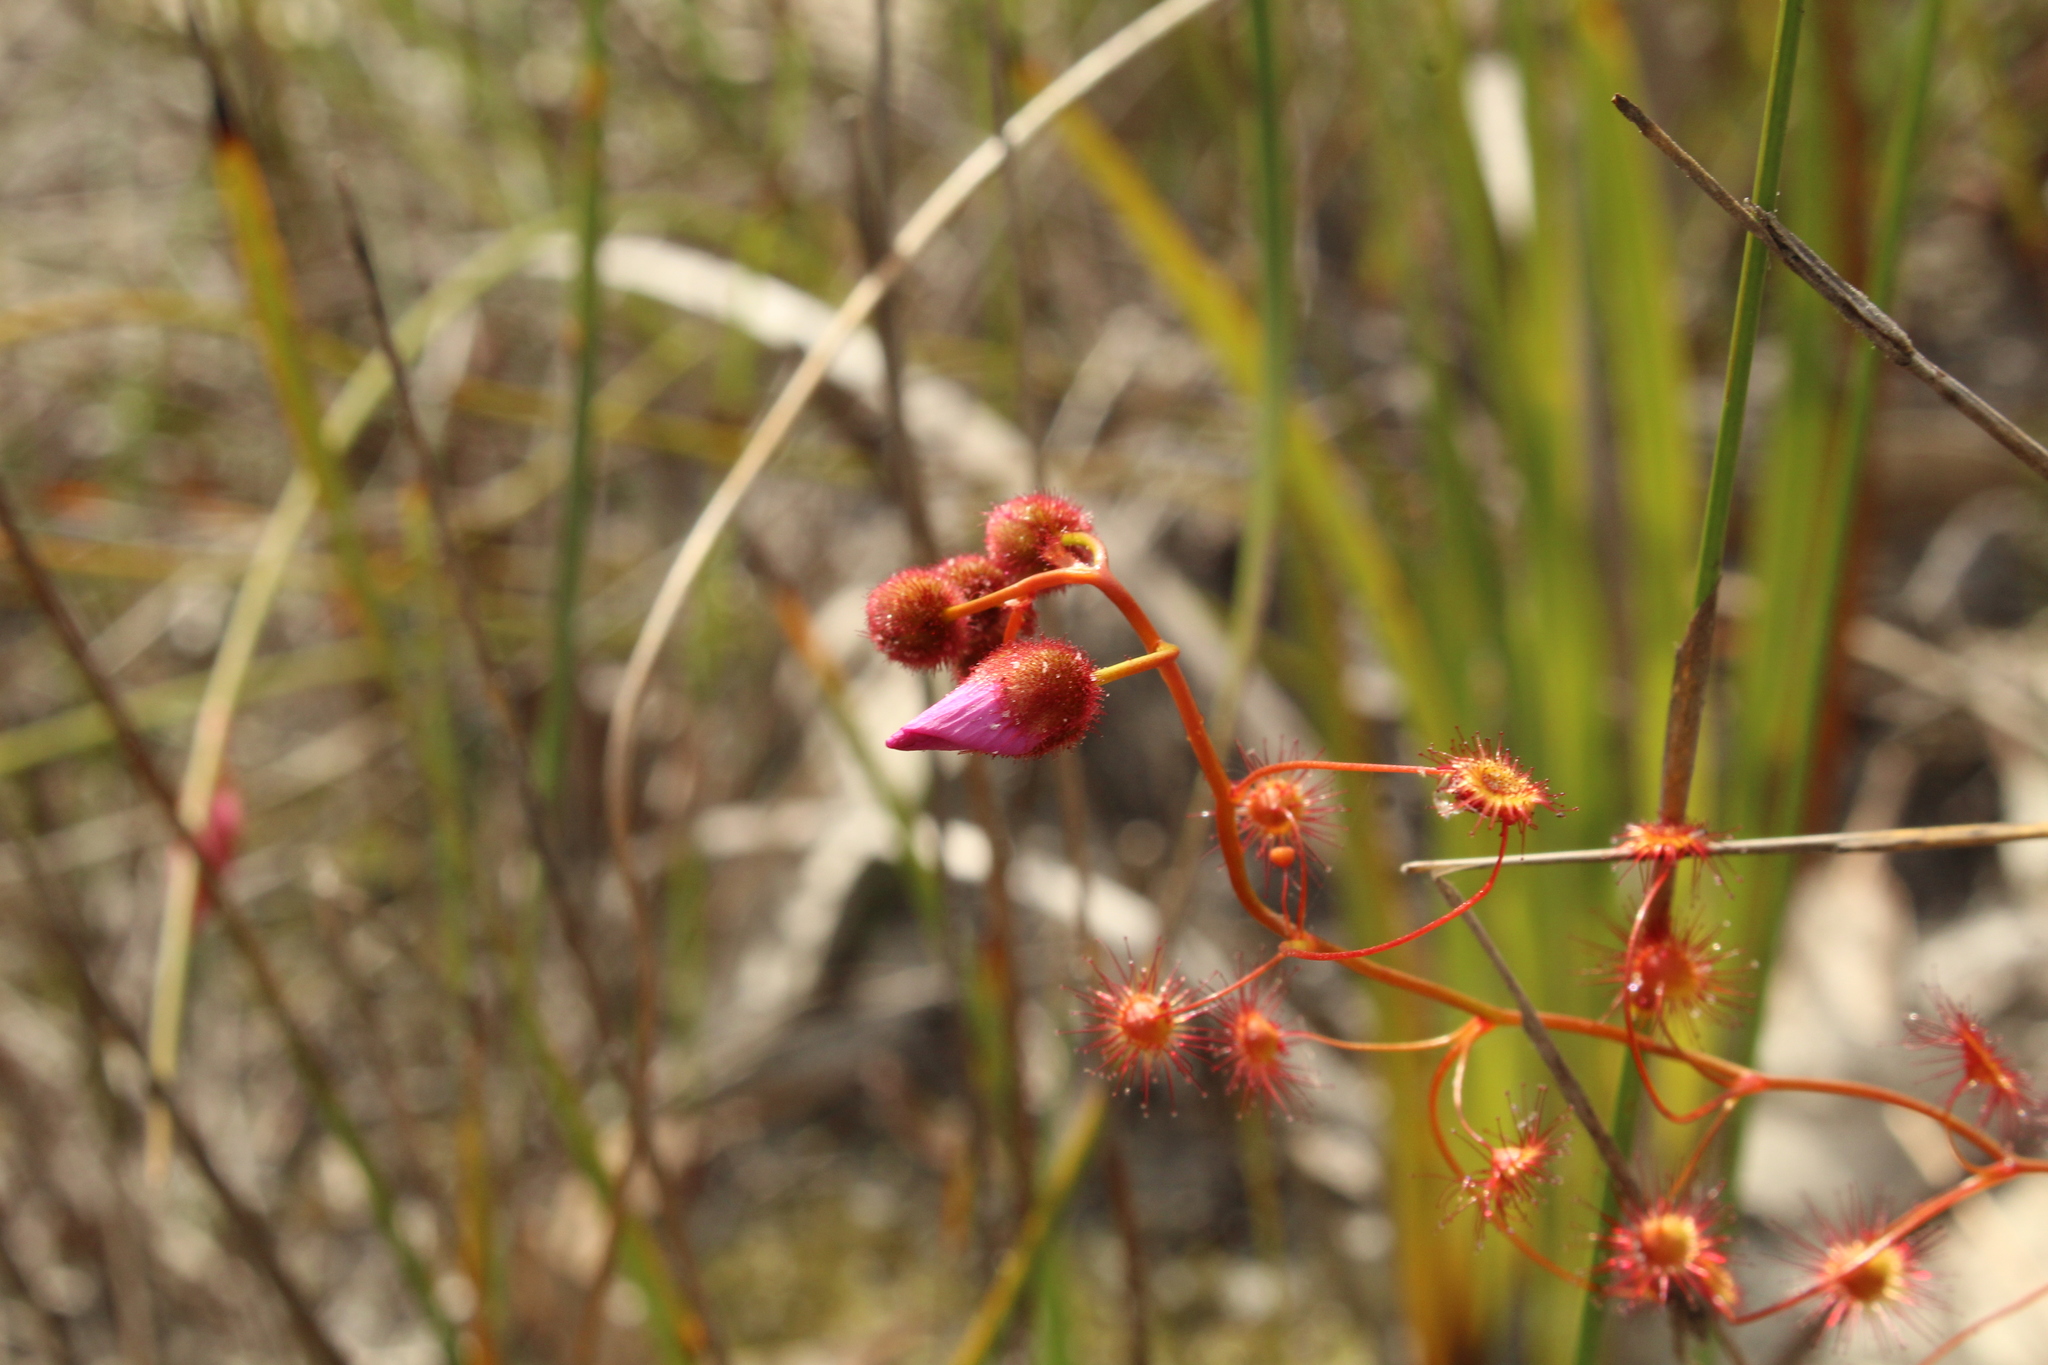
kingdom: Plantae
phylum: Tracheophyta
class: Magnoliopsida
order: Caryophyllales
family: Droseraceae
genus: Drosera
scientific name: Drosera
